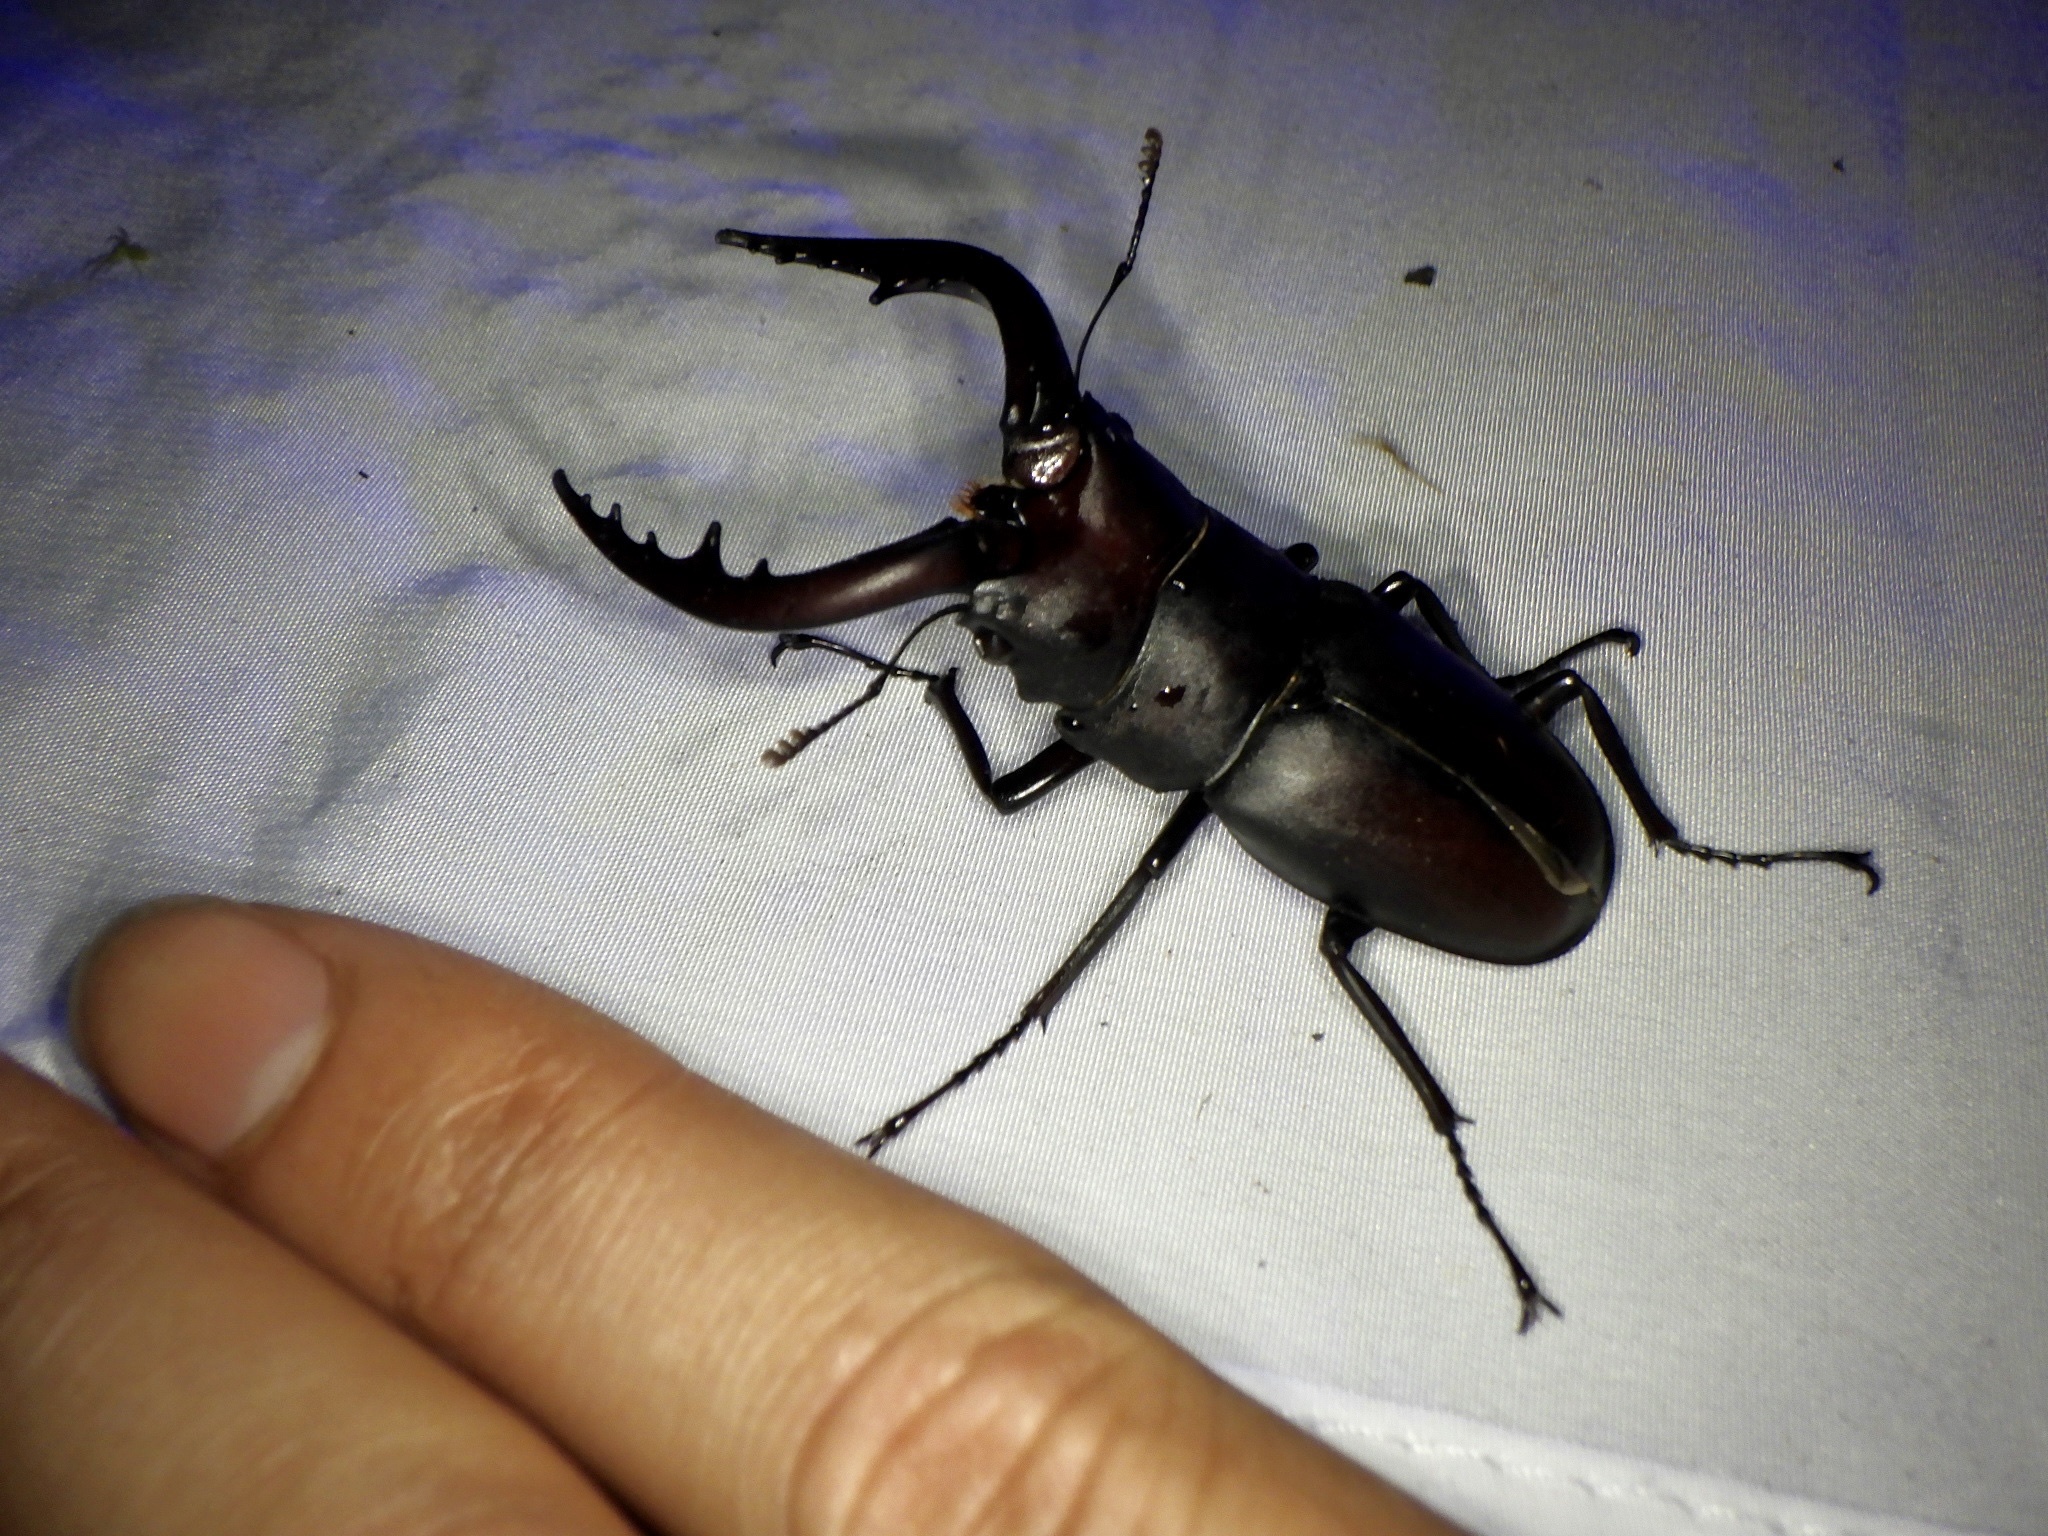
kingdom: Animalia
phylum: Arthropoda
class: Insecta
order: Coleoptera
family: Lucanidae
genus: Prosopocoilus
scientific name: Prosopocoilus inclinatus
